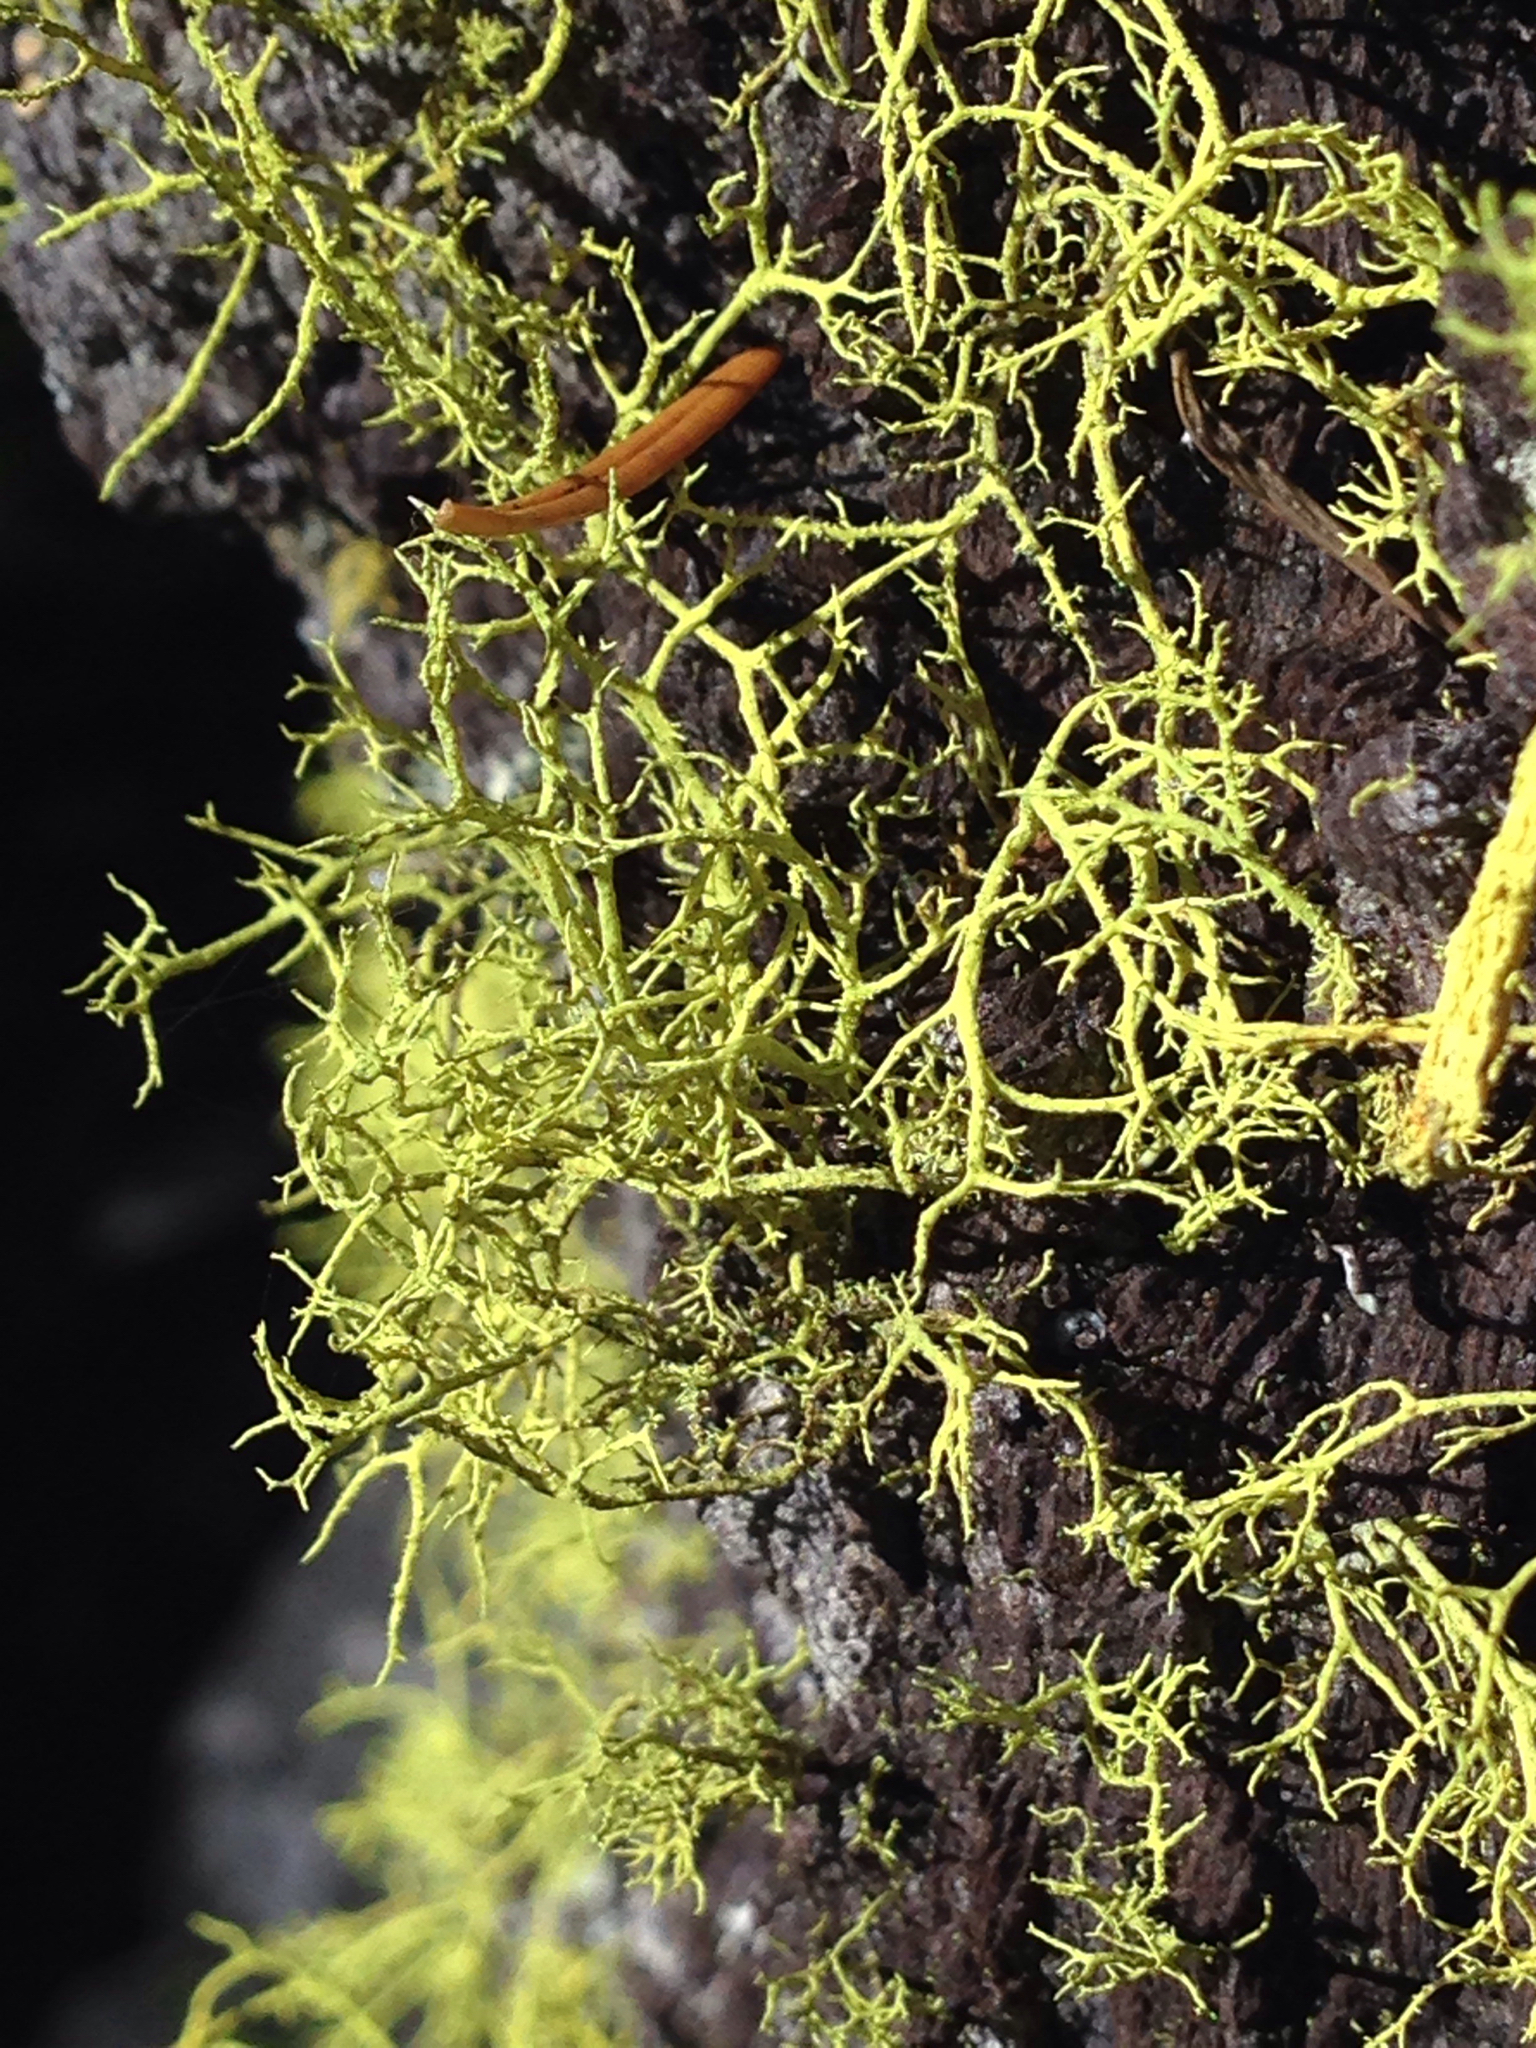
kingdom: Fungi
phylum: Ascomycota
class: Lecanoromycetes
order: Lecanorales
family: Parmeliaceae
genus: Letharia
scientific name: Letharia vulpina
